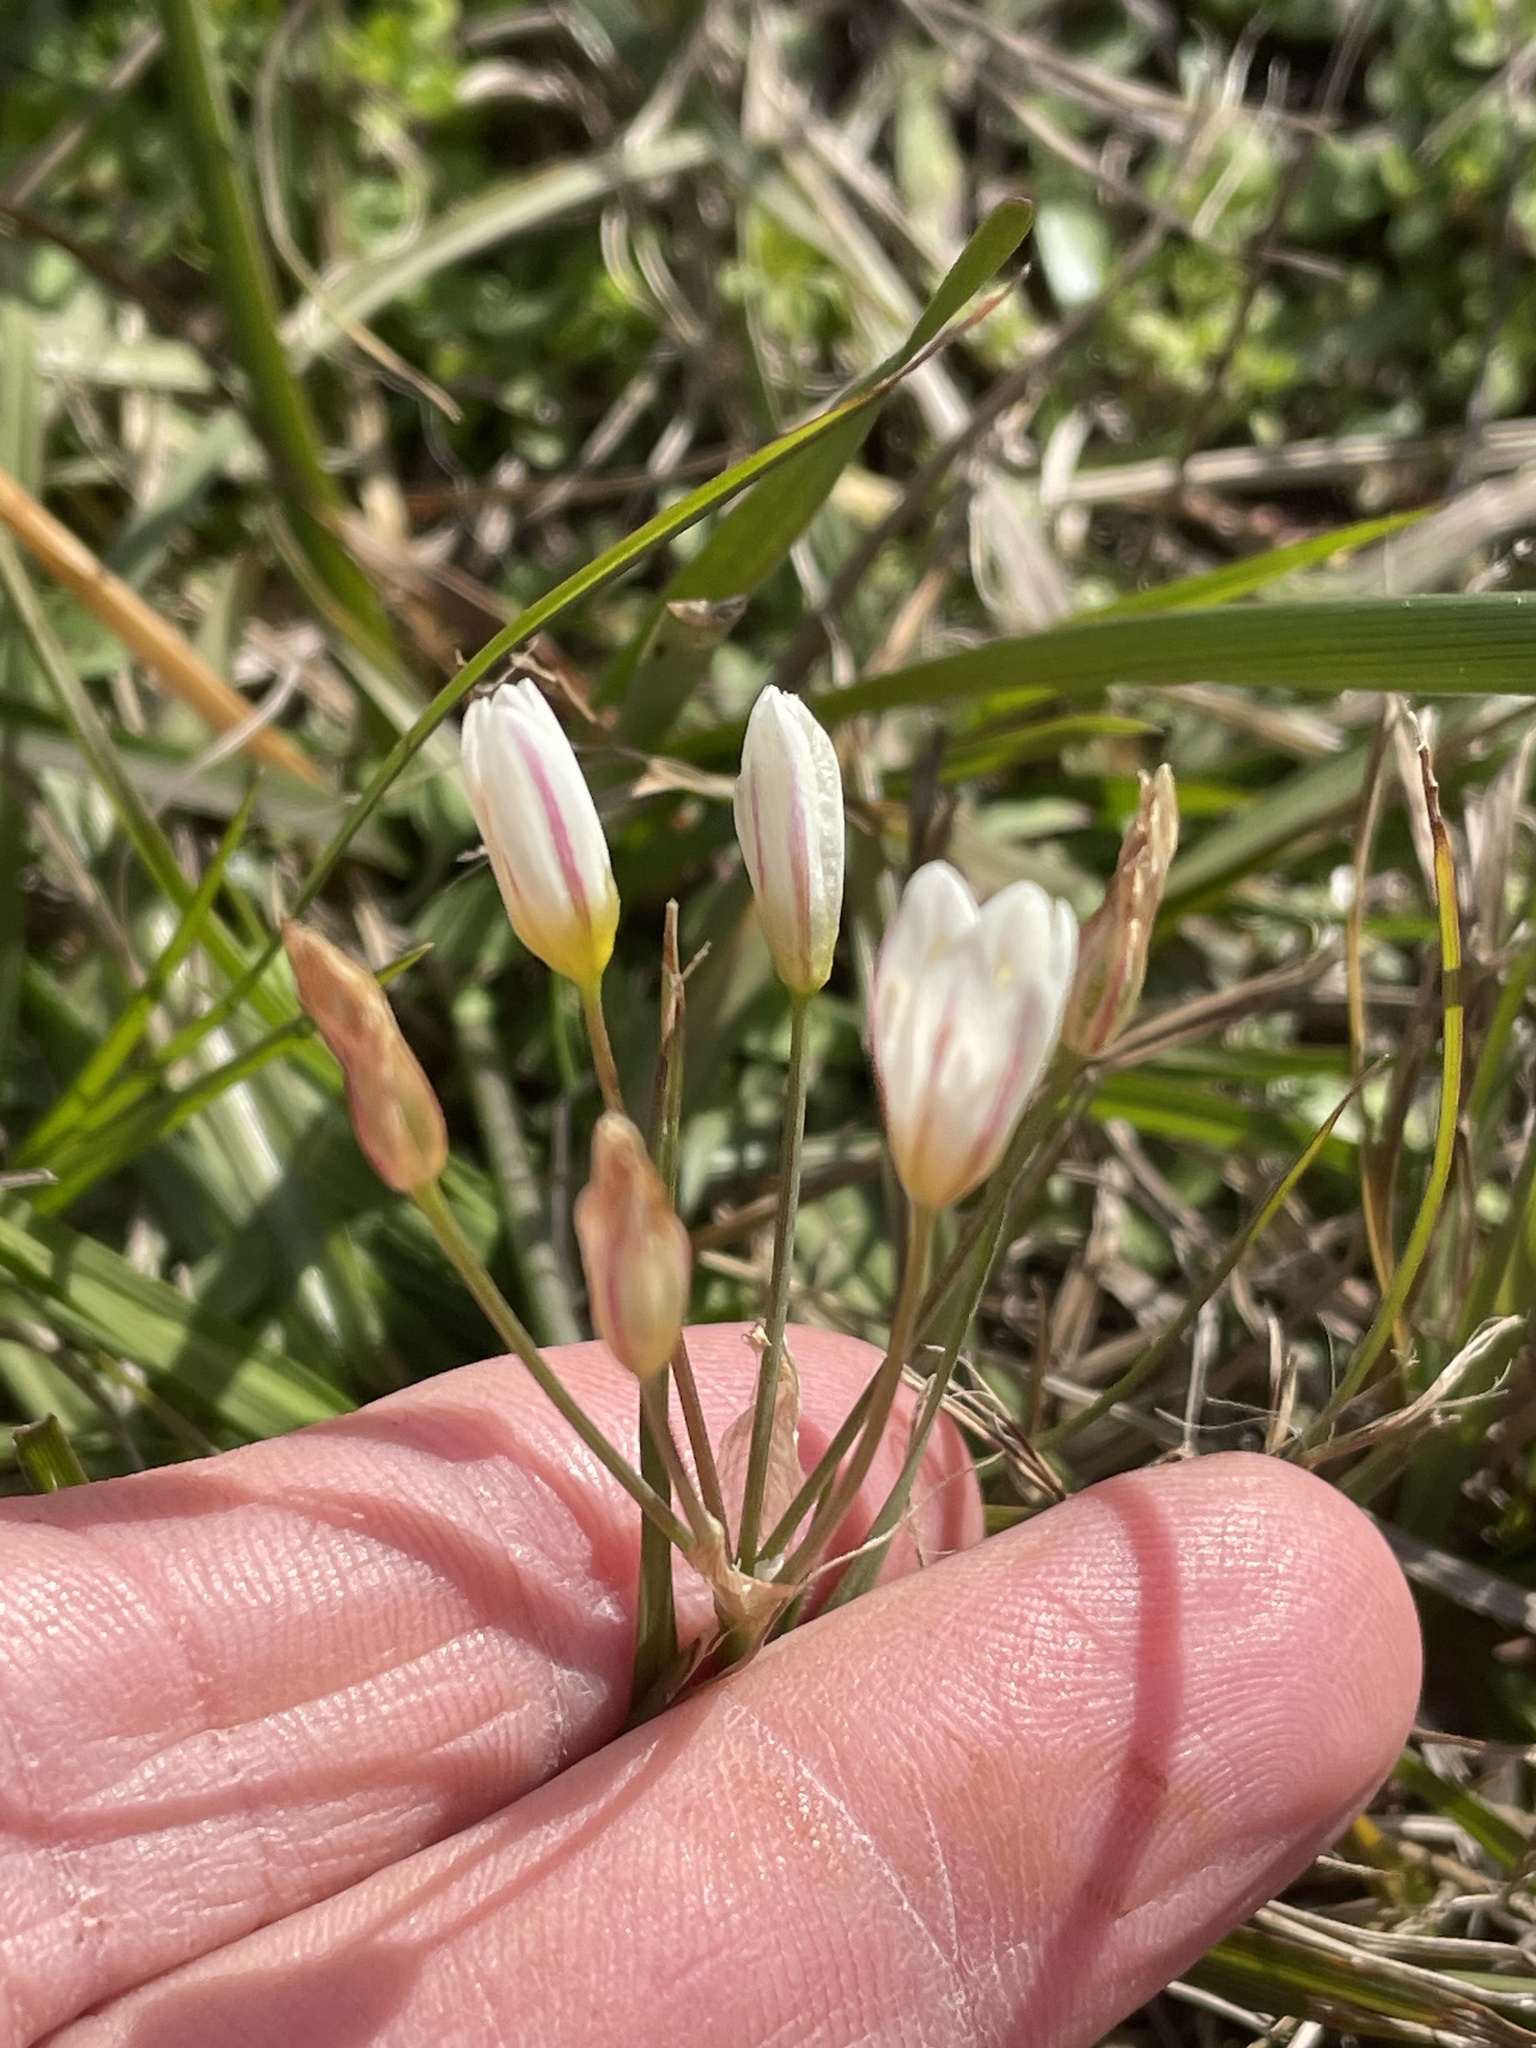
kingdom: Plantae
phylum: Tracheophyta
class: Liliopsida
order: Asparagales
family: Amaryllidaceae
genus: Nothoscordum
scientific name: Nothoscordum bivalve
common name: Crow-poison
